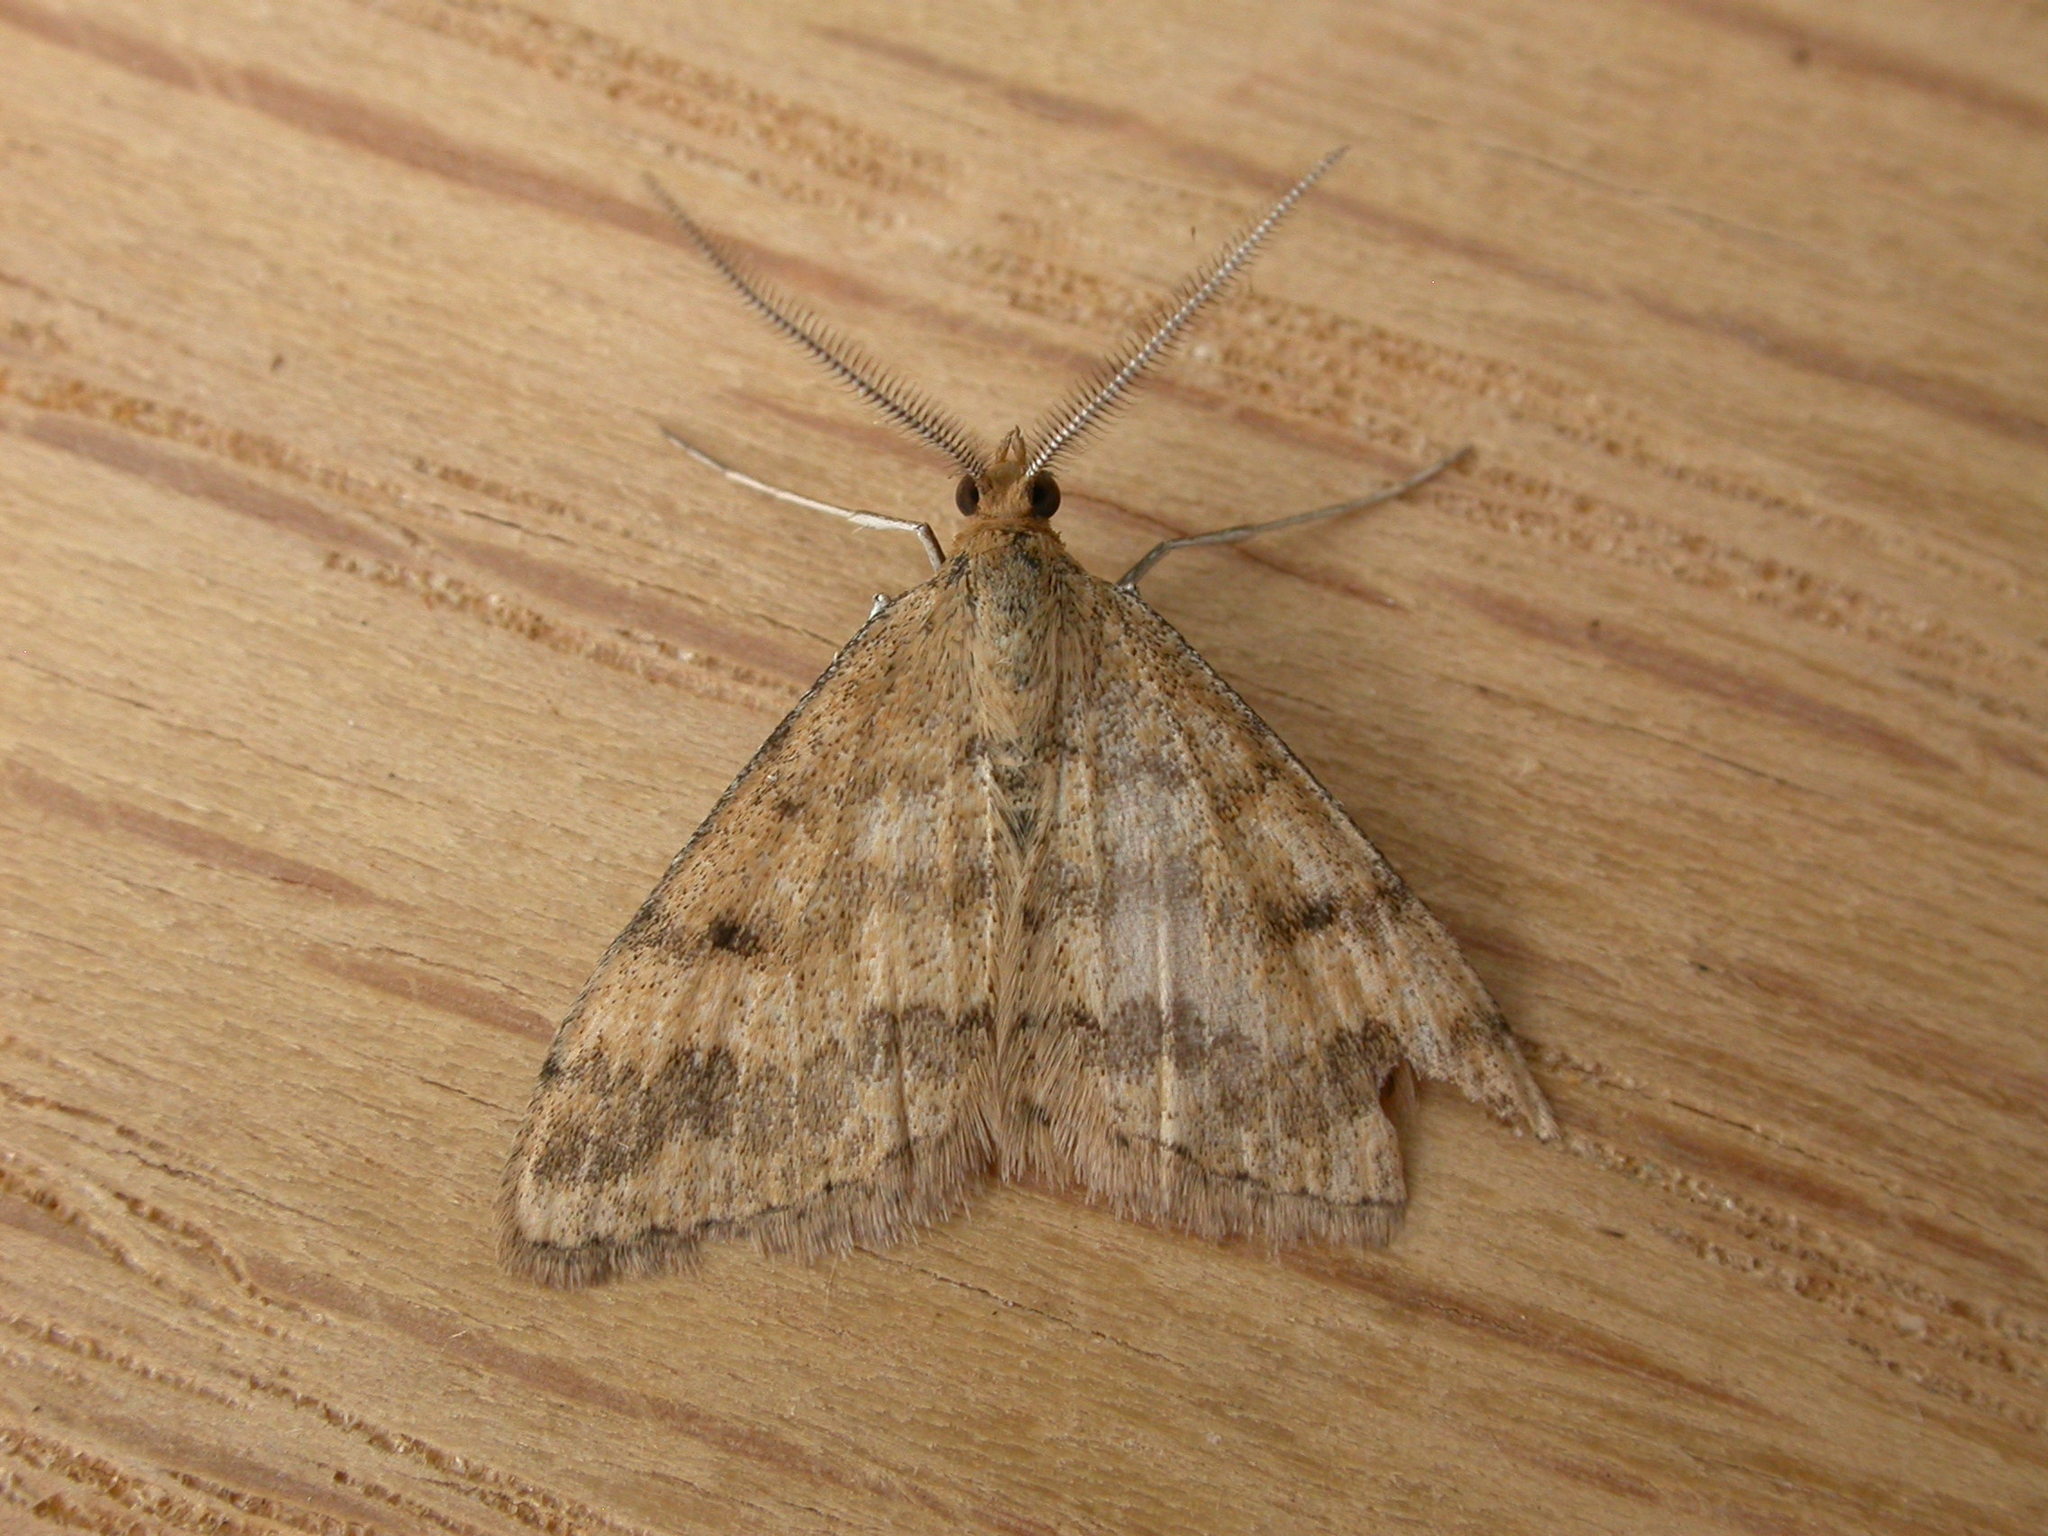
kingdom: Animalia
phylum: Arthropoda
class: Insecta
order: Lepidoptera
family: Geometridae
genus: Scopula
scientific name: Scopula rubraria
